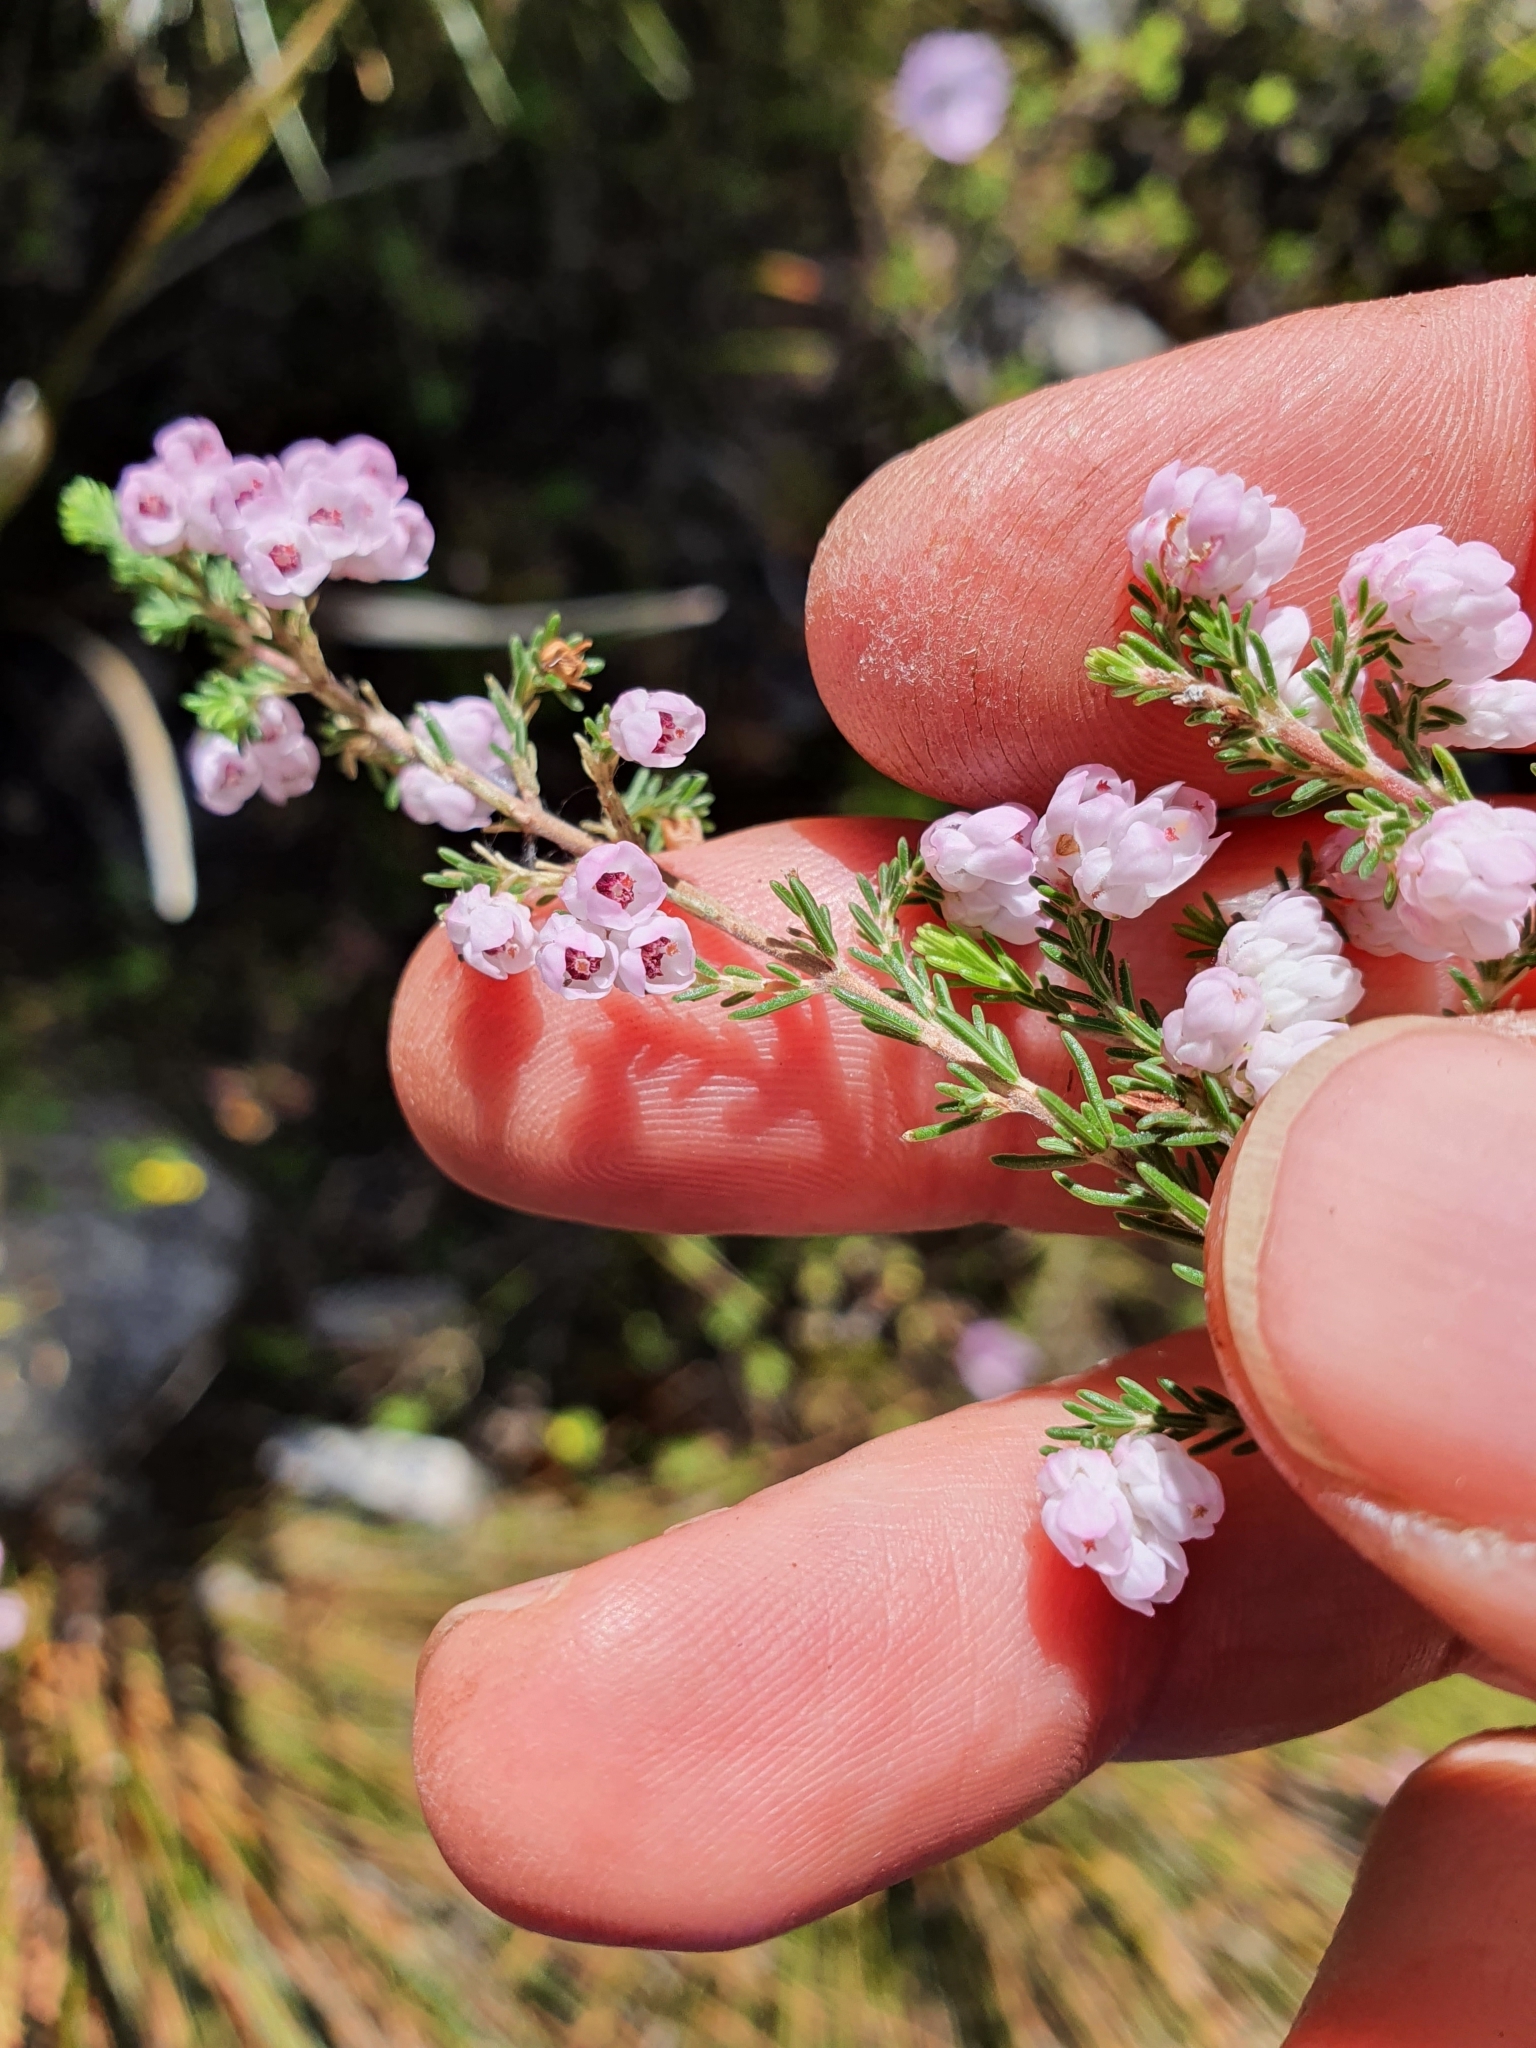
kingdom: Plantae
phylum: Tracheophyta
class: Magnoliopsida
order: Ericales
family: Ericaceae
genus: Erica
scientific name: Erica cristiflora
